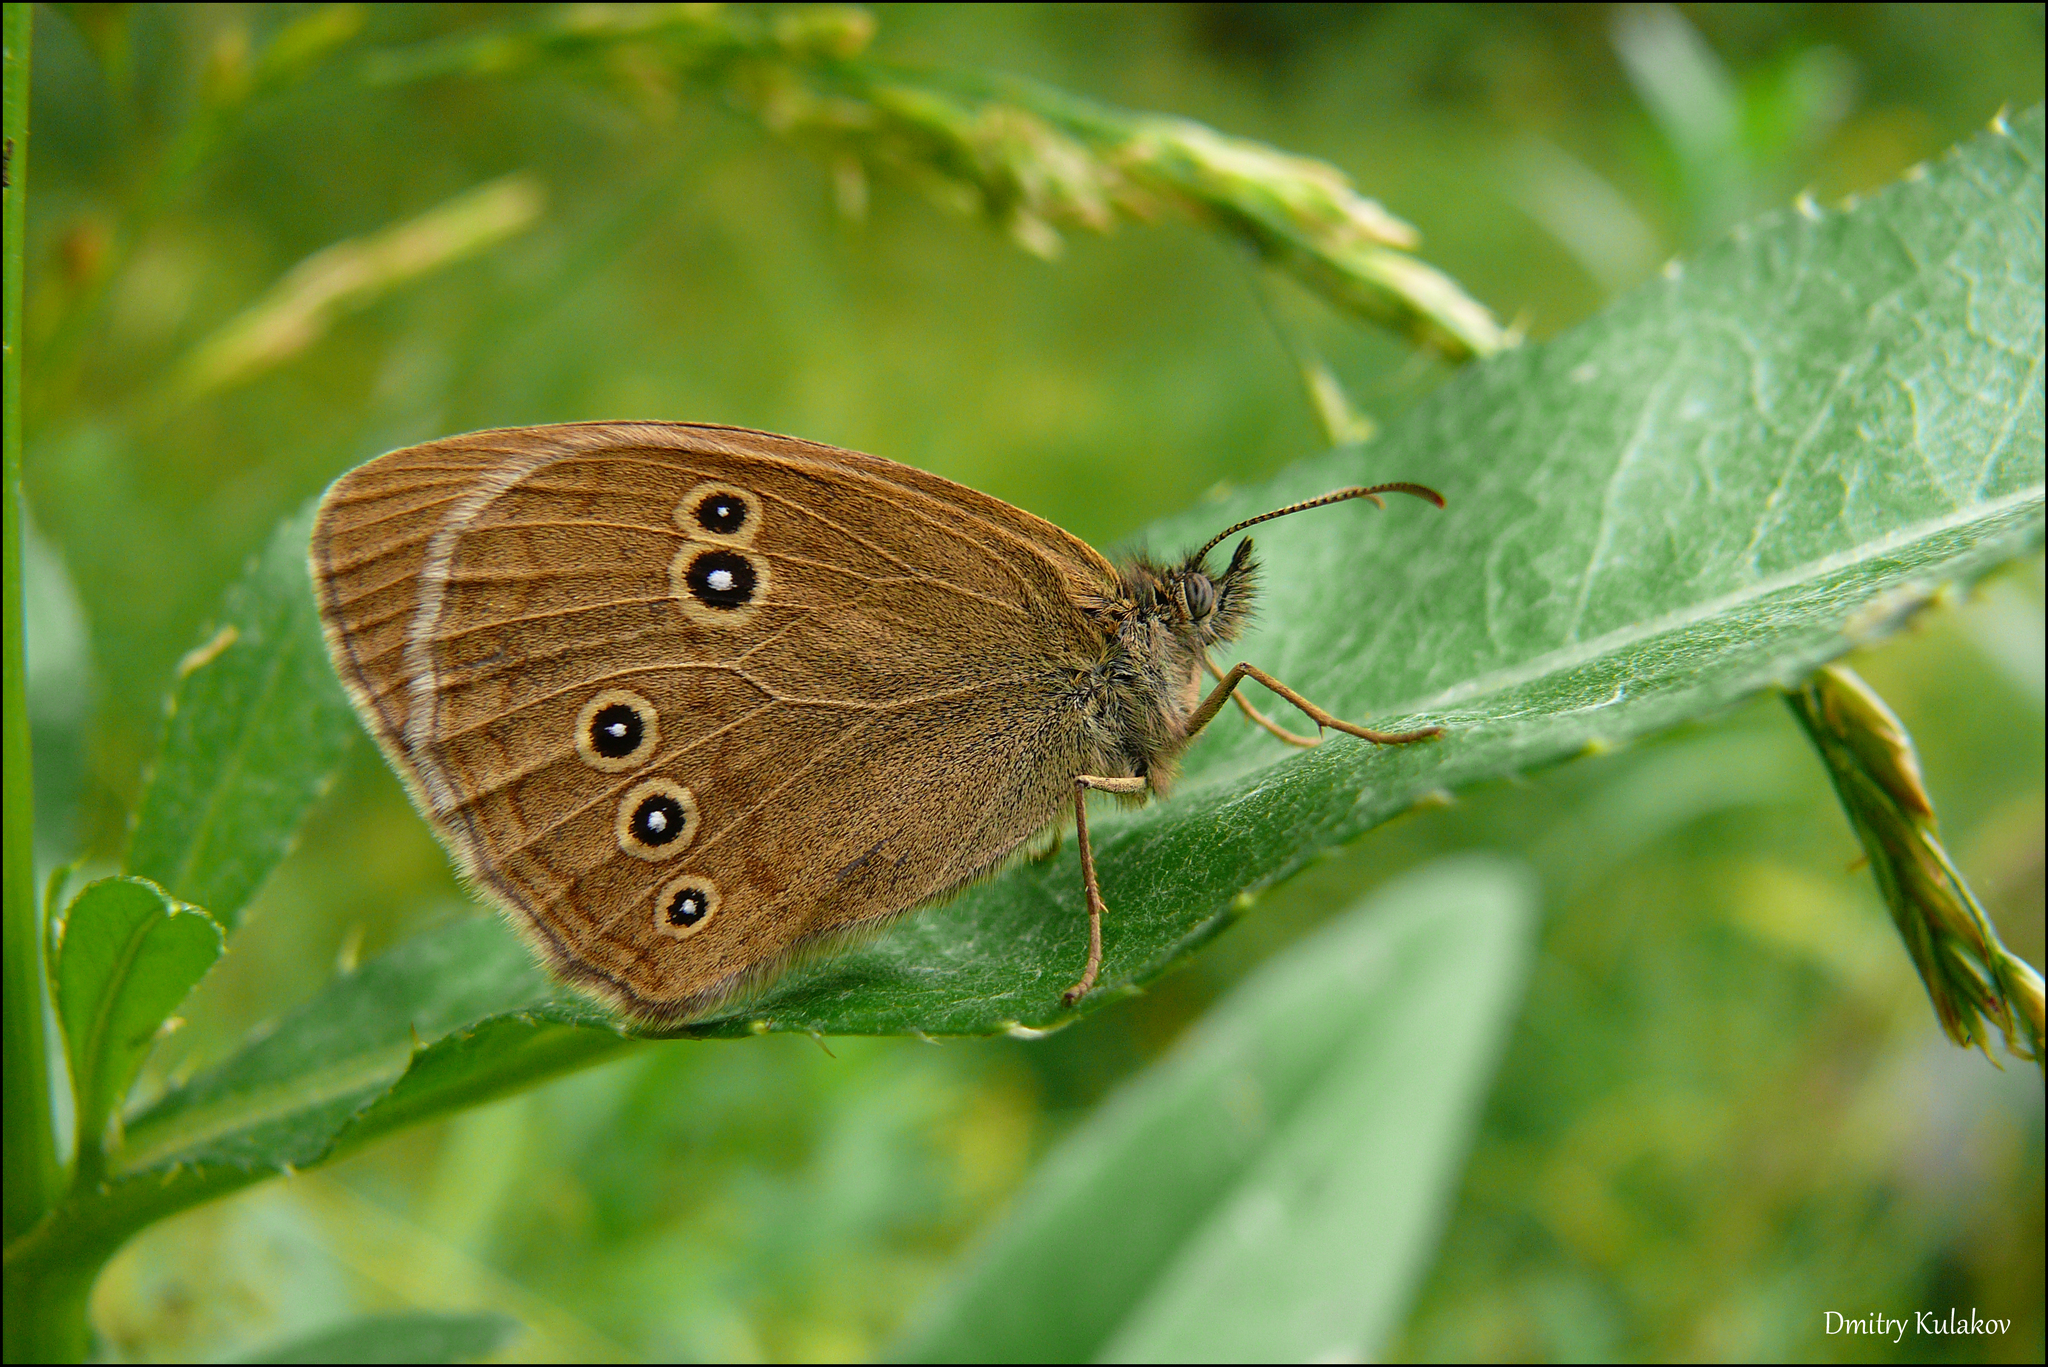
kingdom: Animalia
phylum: Arthropoda
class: Insecta
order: Lepidoptera
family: Nymphalidae
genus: Aphantopus
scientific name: Aphantopus hyperantus
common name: Ringlet
